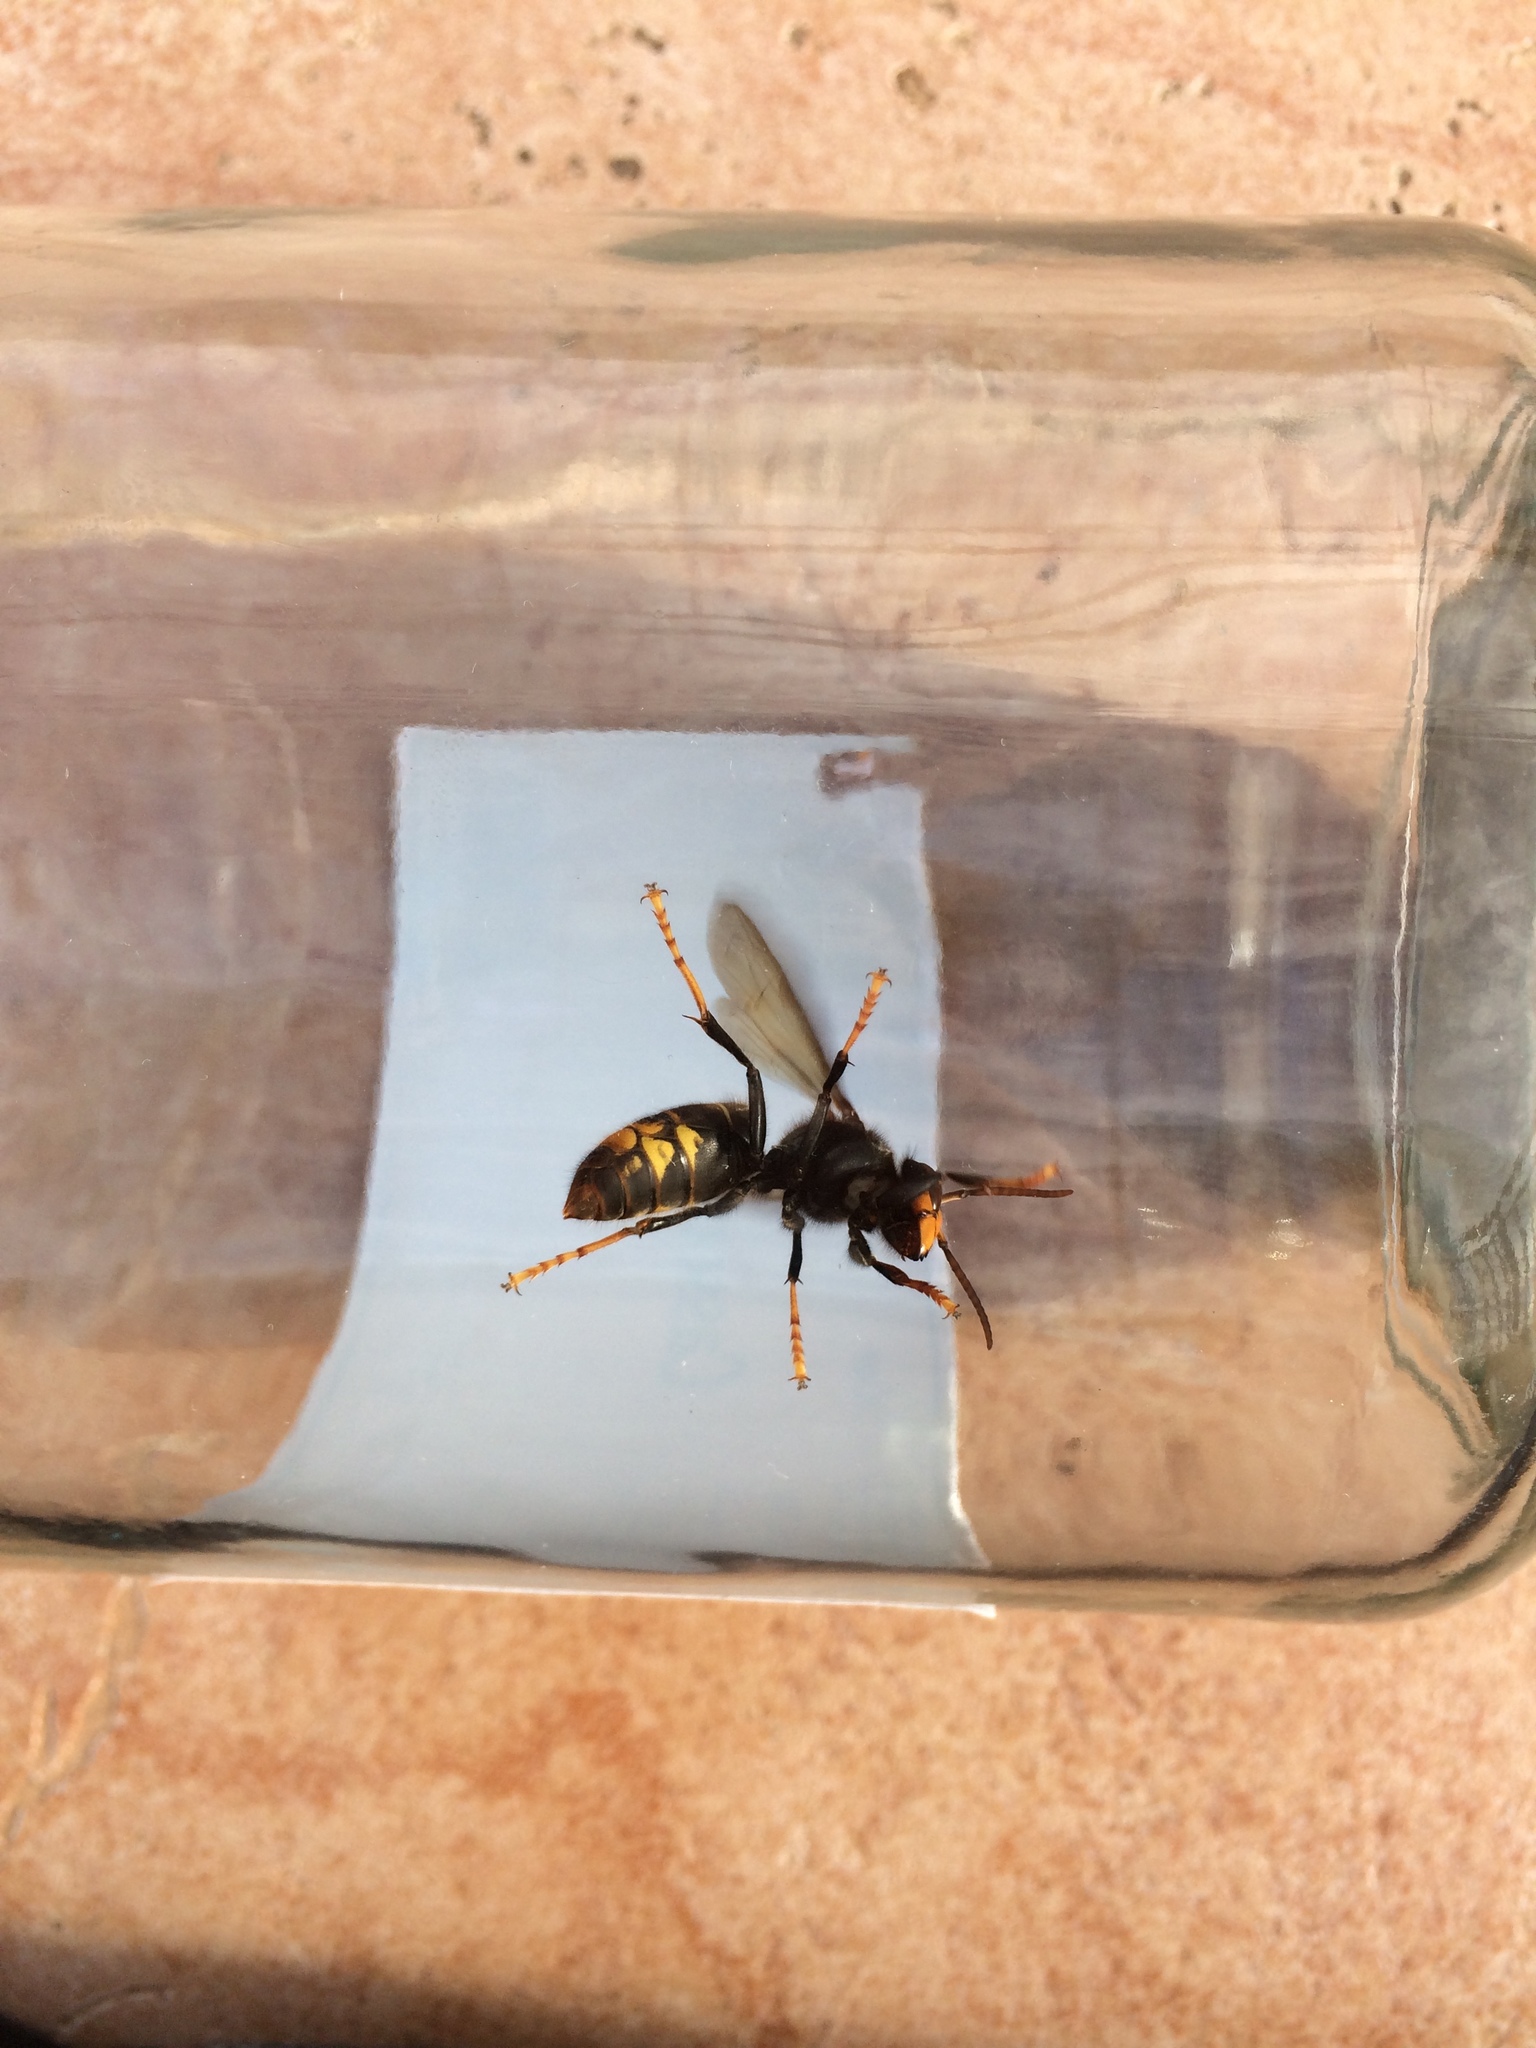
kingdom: Animalia
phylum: Arthropoda
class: Insecta
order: Hymenoptera
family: Vespidae
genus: Vespa
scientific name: Vespa velutina
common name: Asian hornet
